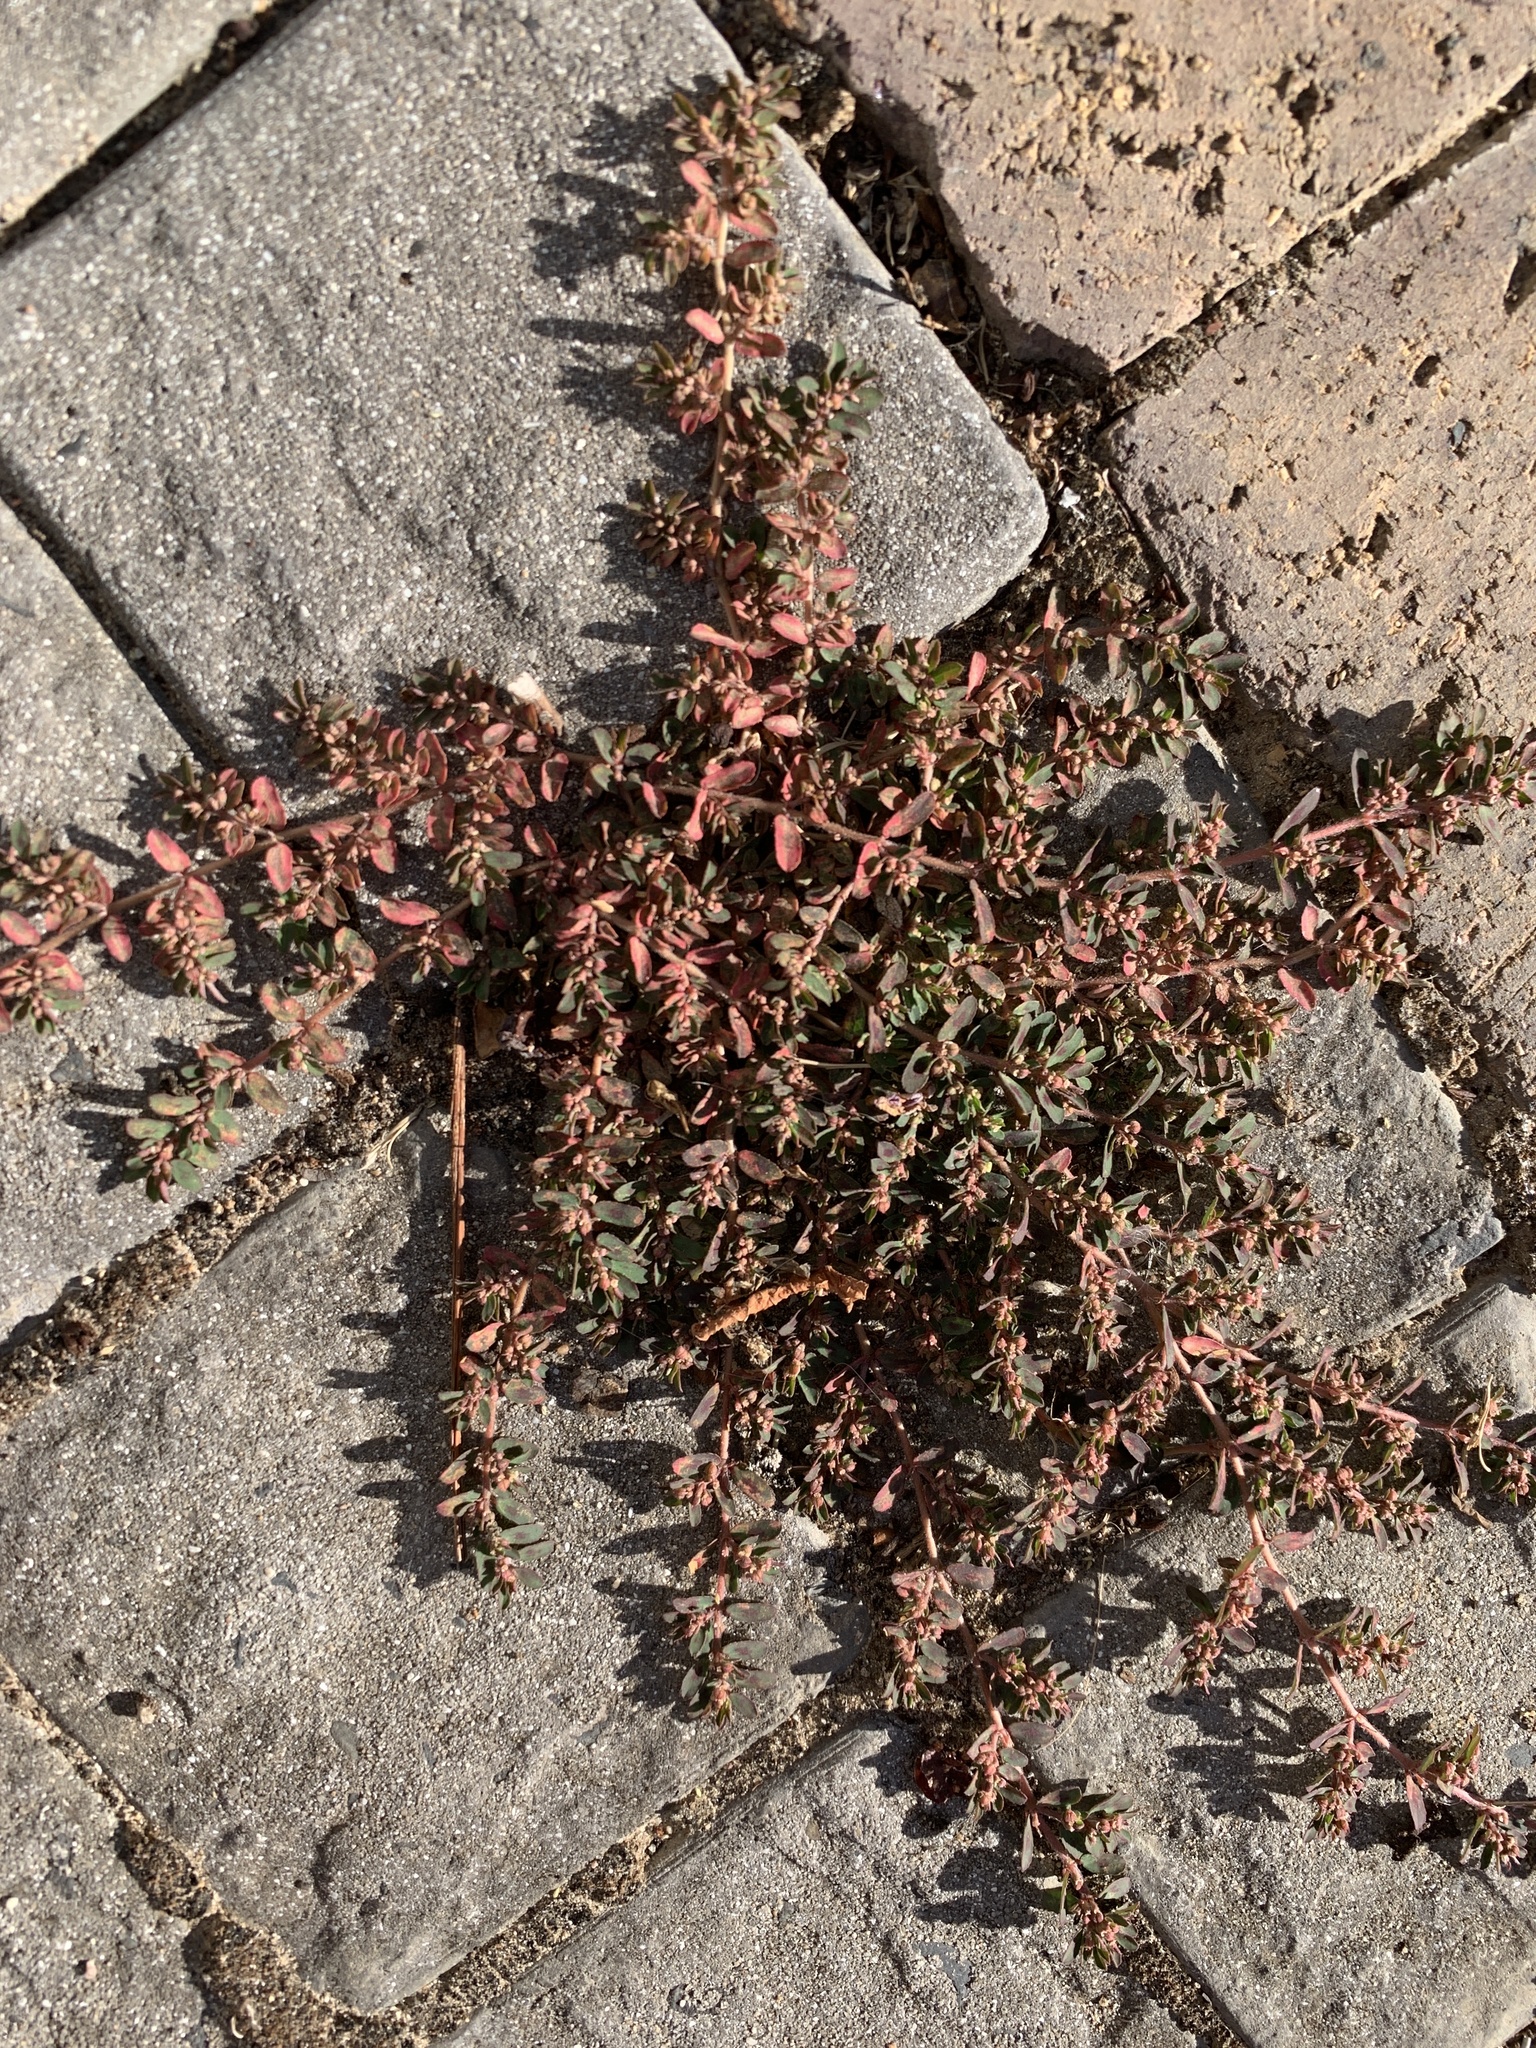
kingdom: Plantae
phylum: Tracheophyta
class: Magnoliopsida
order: Malpighiales
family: Euphorbiaceae
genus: Euphorbia
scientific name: Euphorbia maculata
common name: Spotted spurge
